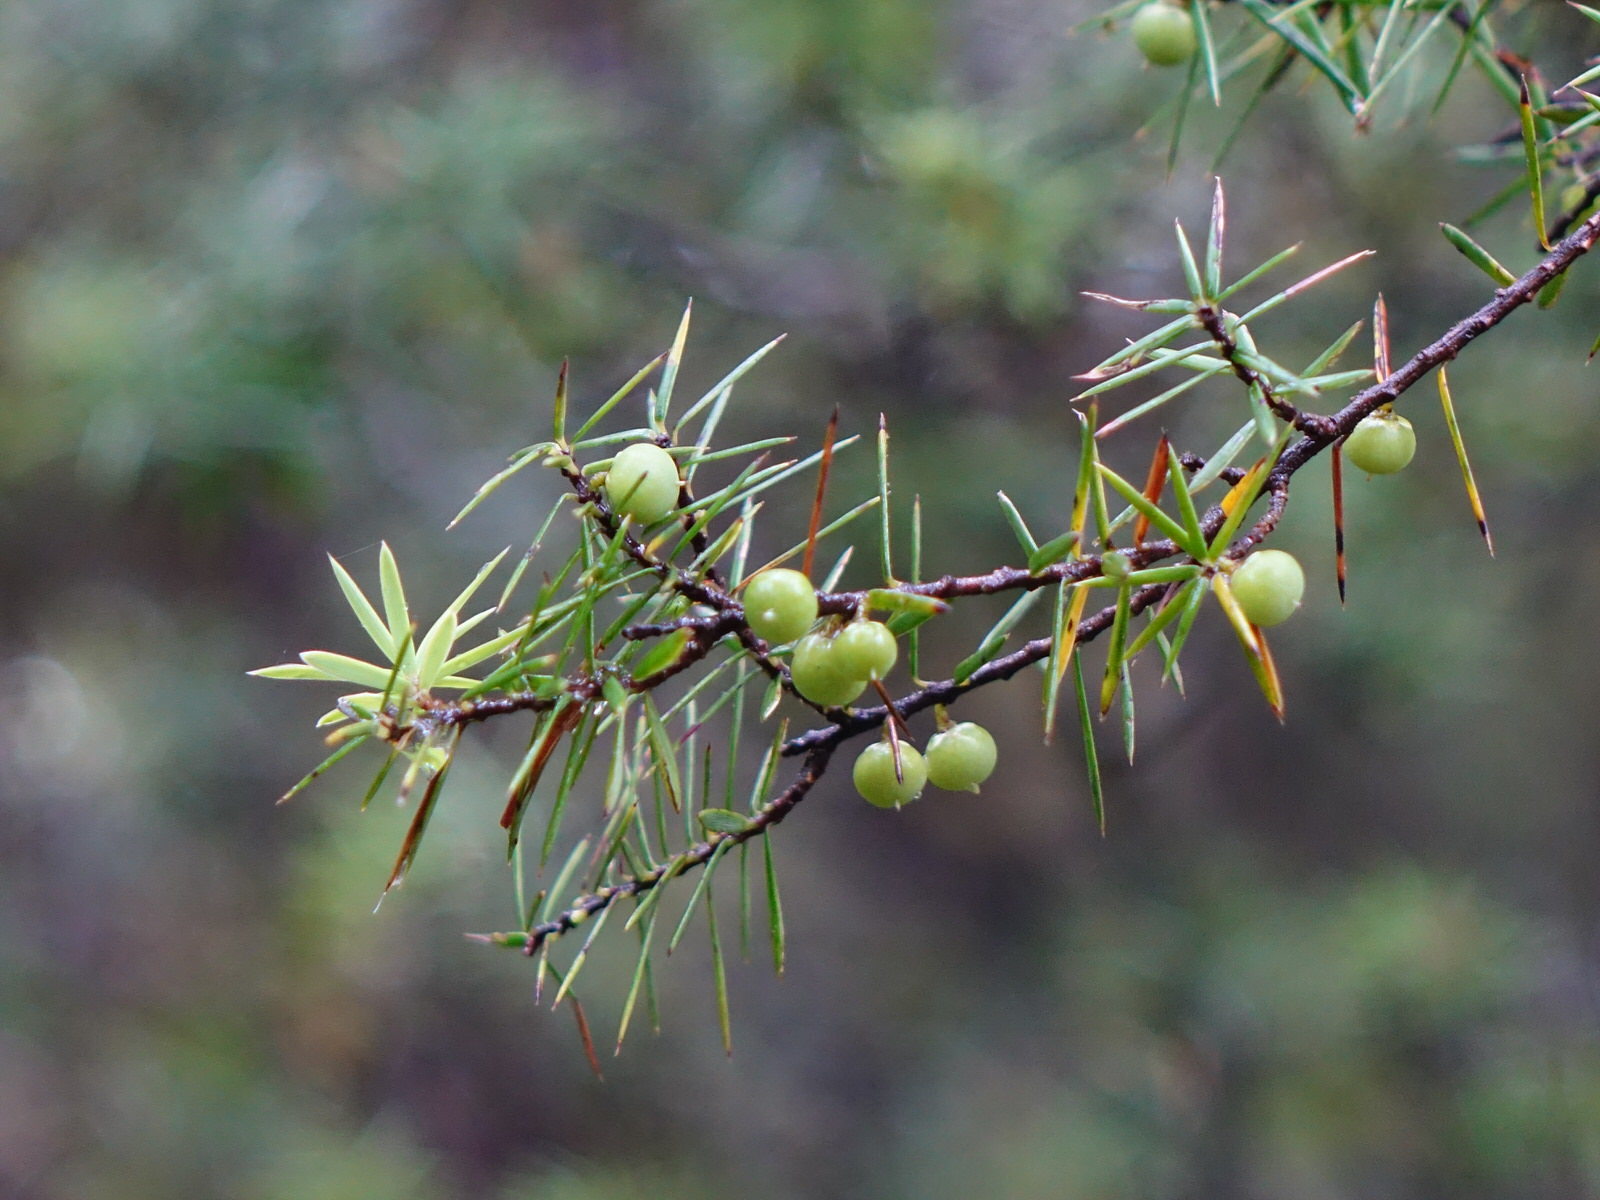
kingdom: Plantae
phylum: Tracheophyta
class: Magnoliopsida
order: Ericales
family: Ericaceae
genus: Leptecophylla
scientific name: Leptecophylla juniperina
